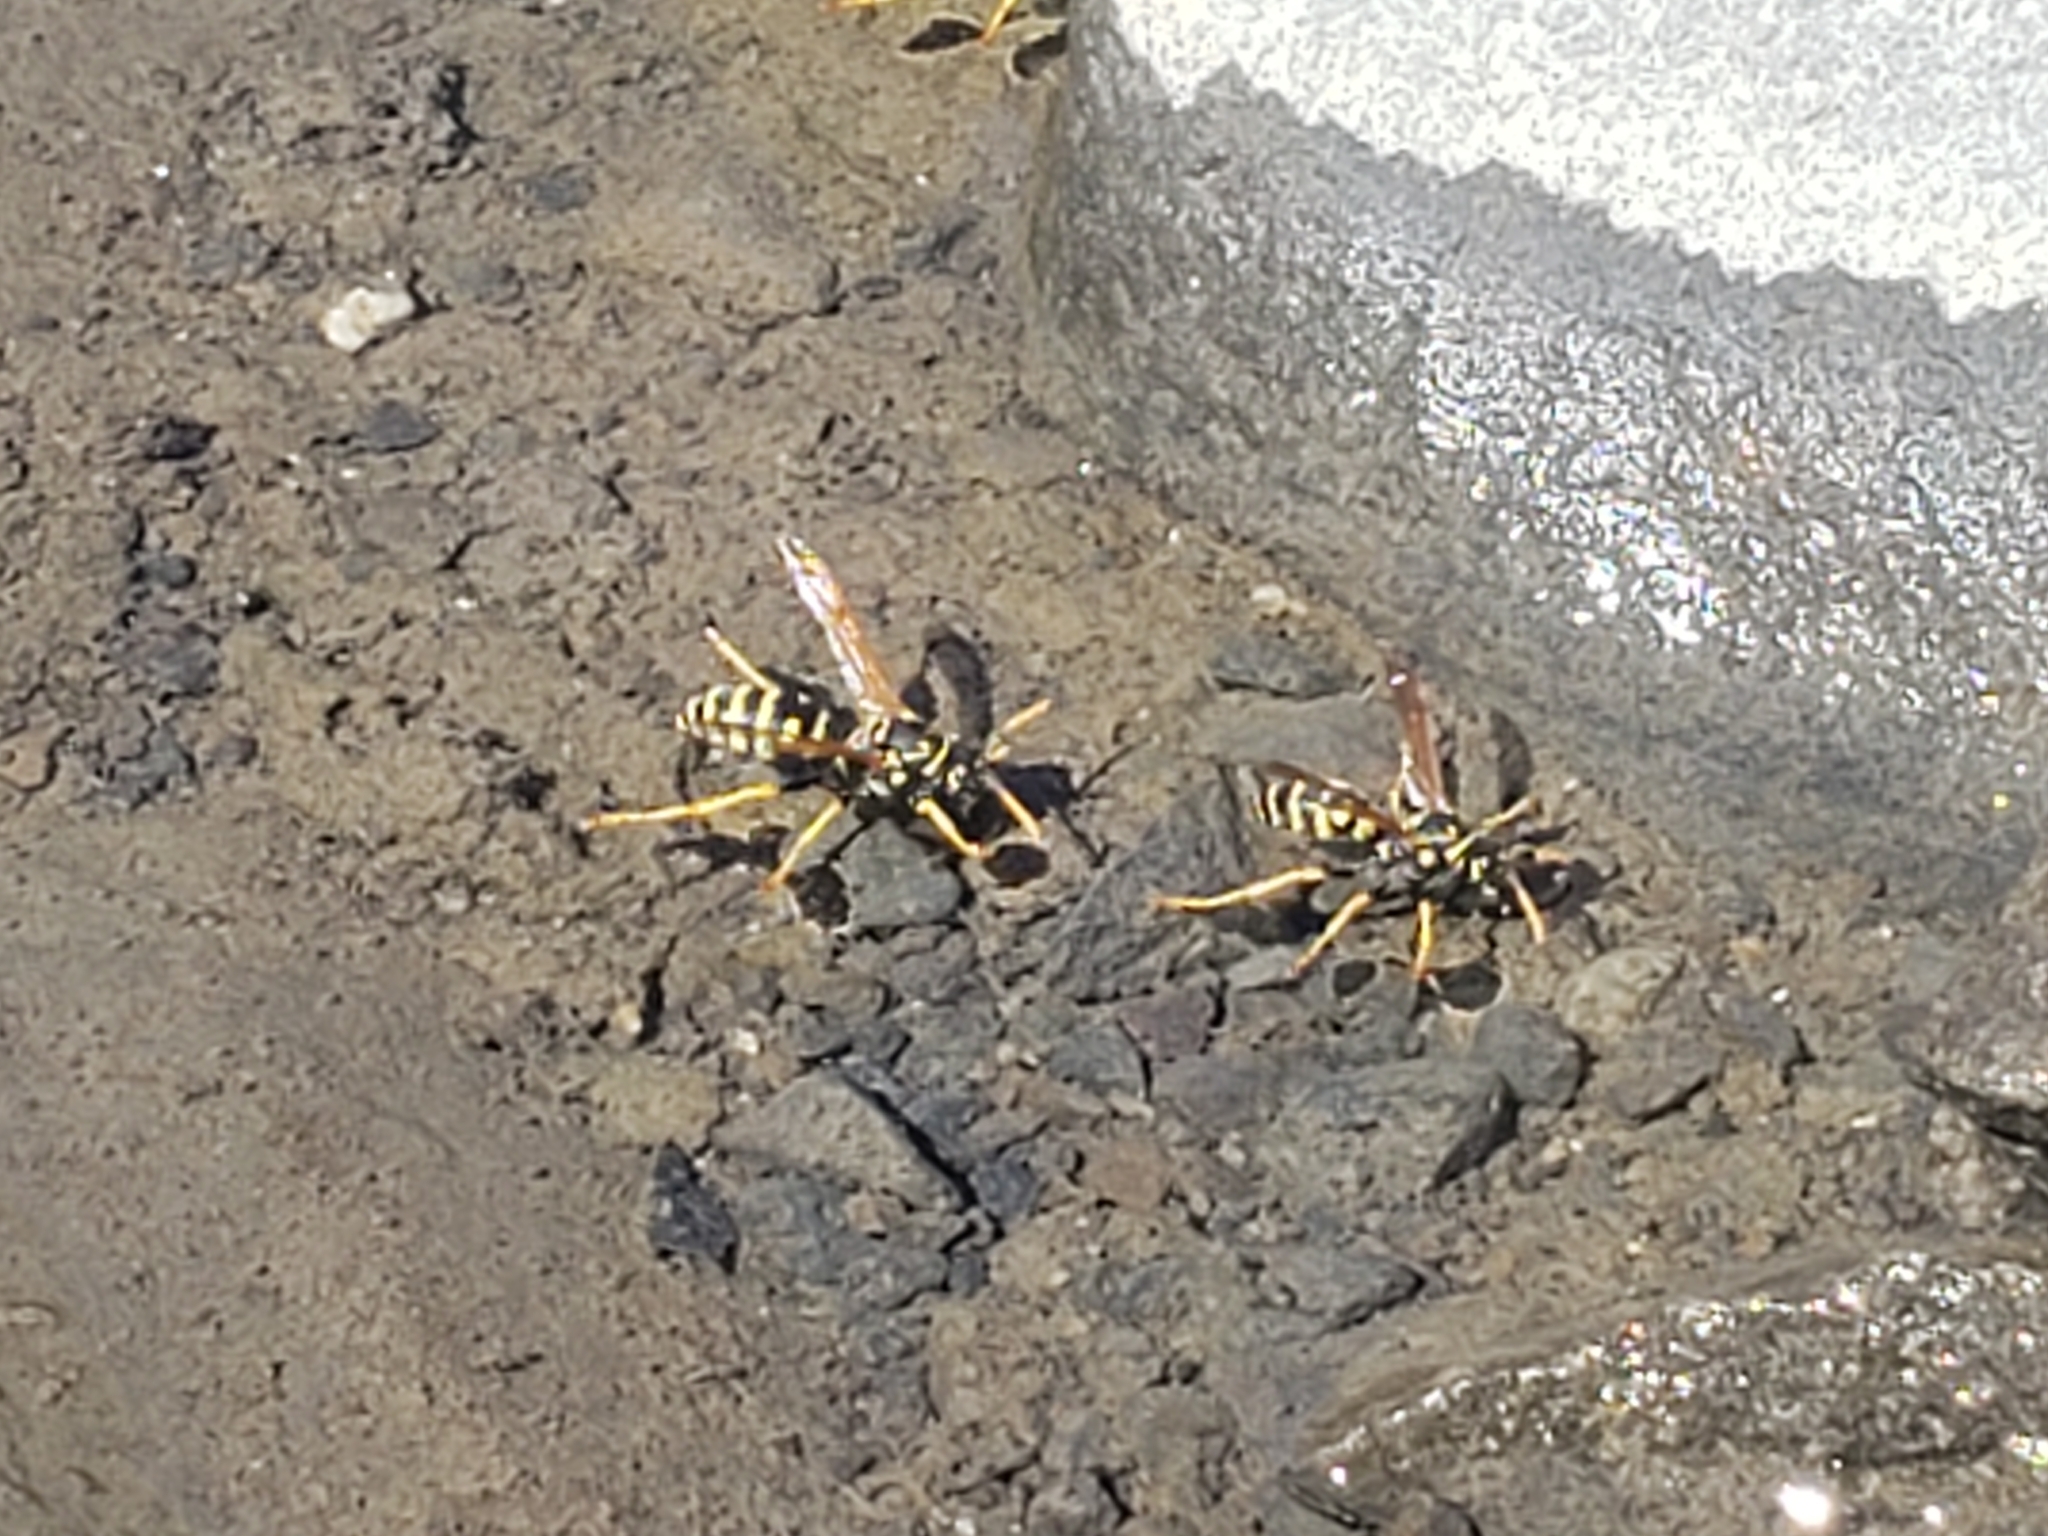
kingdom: Animalia
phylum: Arthropoda
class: Insecta
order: Hymenoptera
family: Eumenidae
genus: Polistes
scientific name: Polistes dominula
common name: Paper wasp
